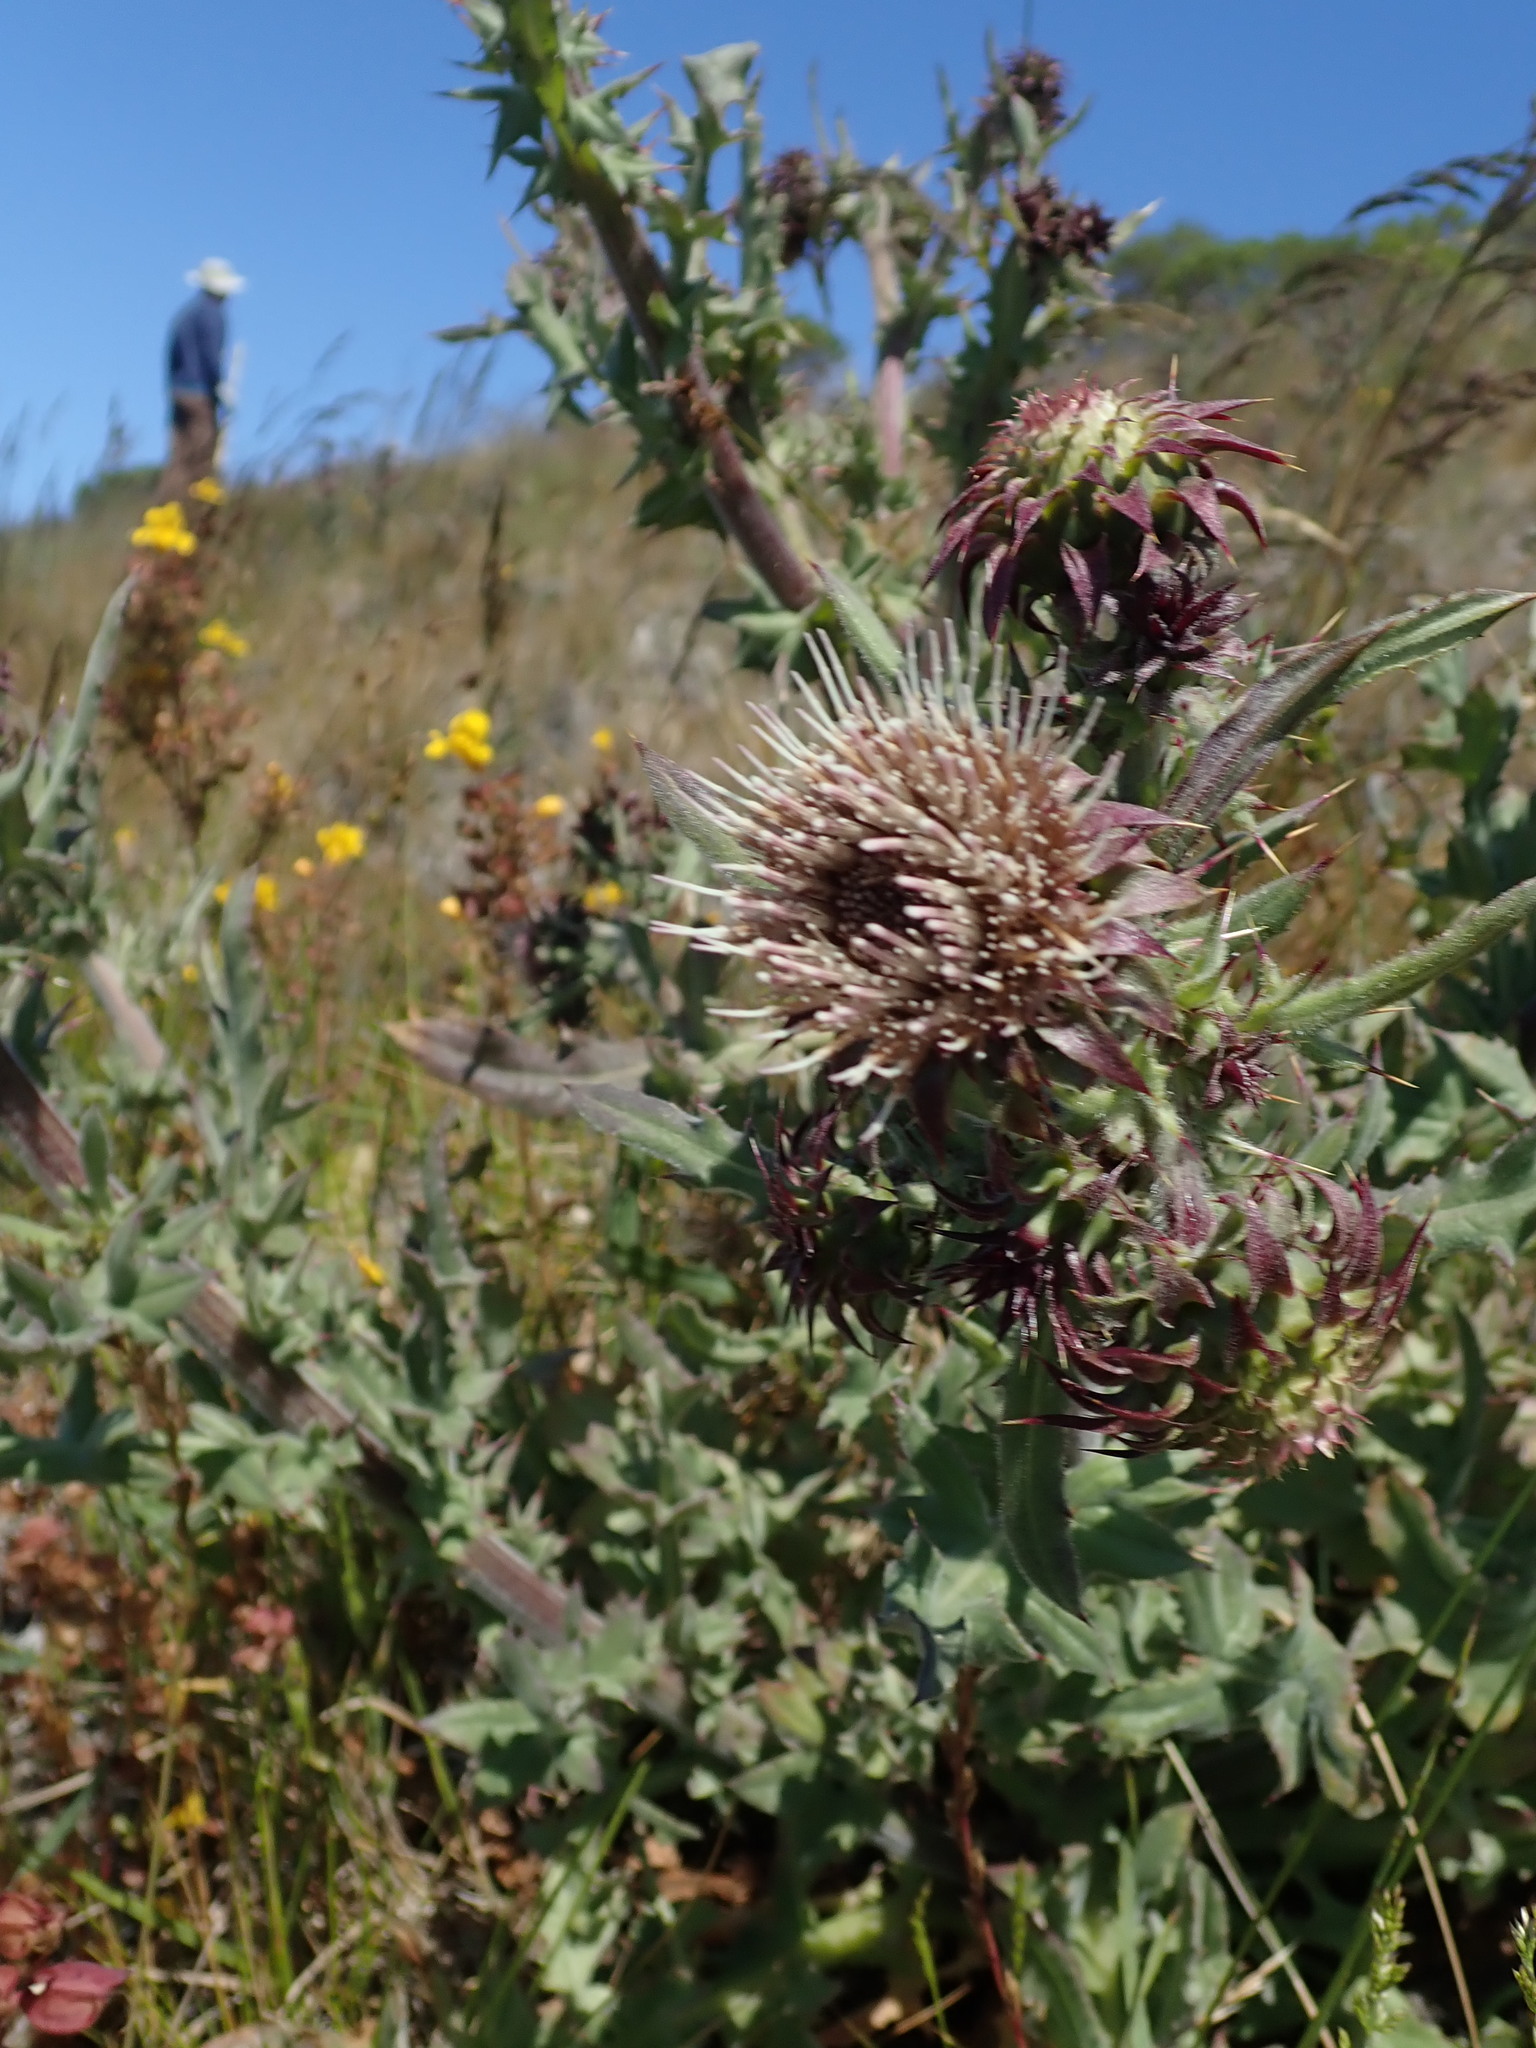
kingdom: Plantae
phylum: Tracheophyta
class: Magnoliopsida
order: Asterales
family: Asteraceae
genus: Cirsium
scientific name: Cirsium fontinale
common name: Fountain thistle
